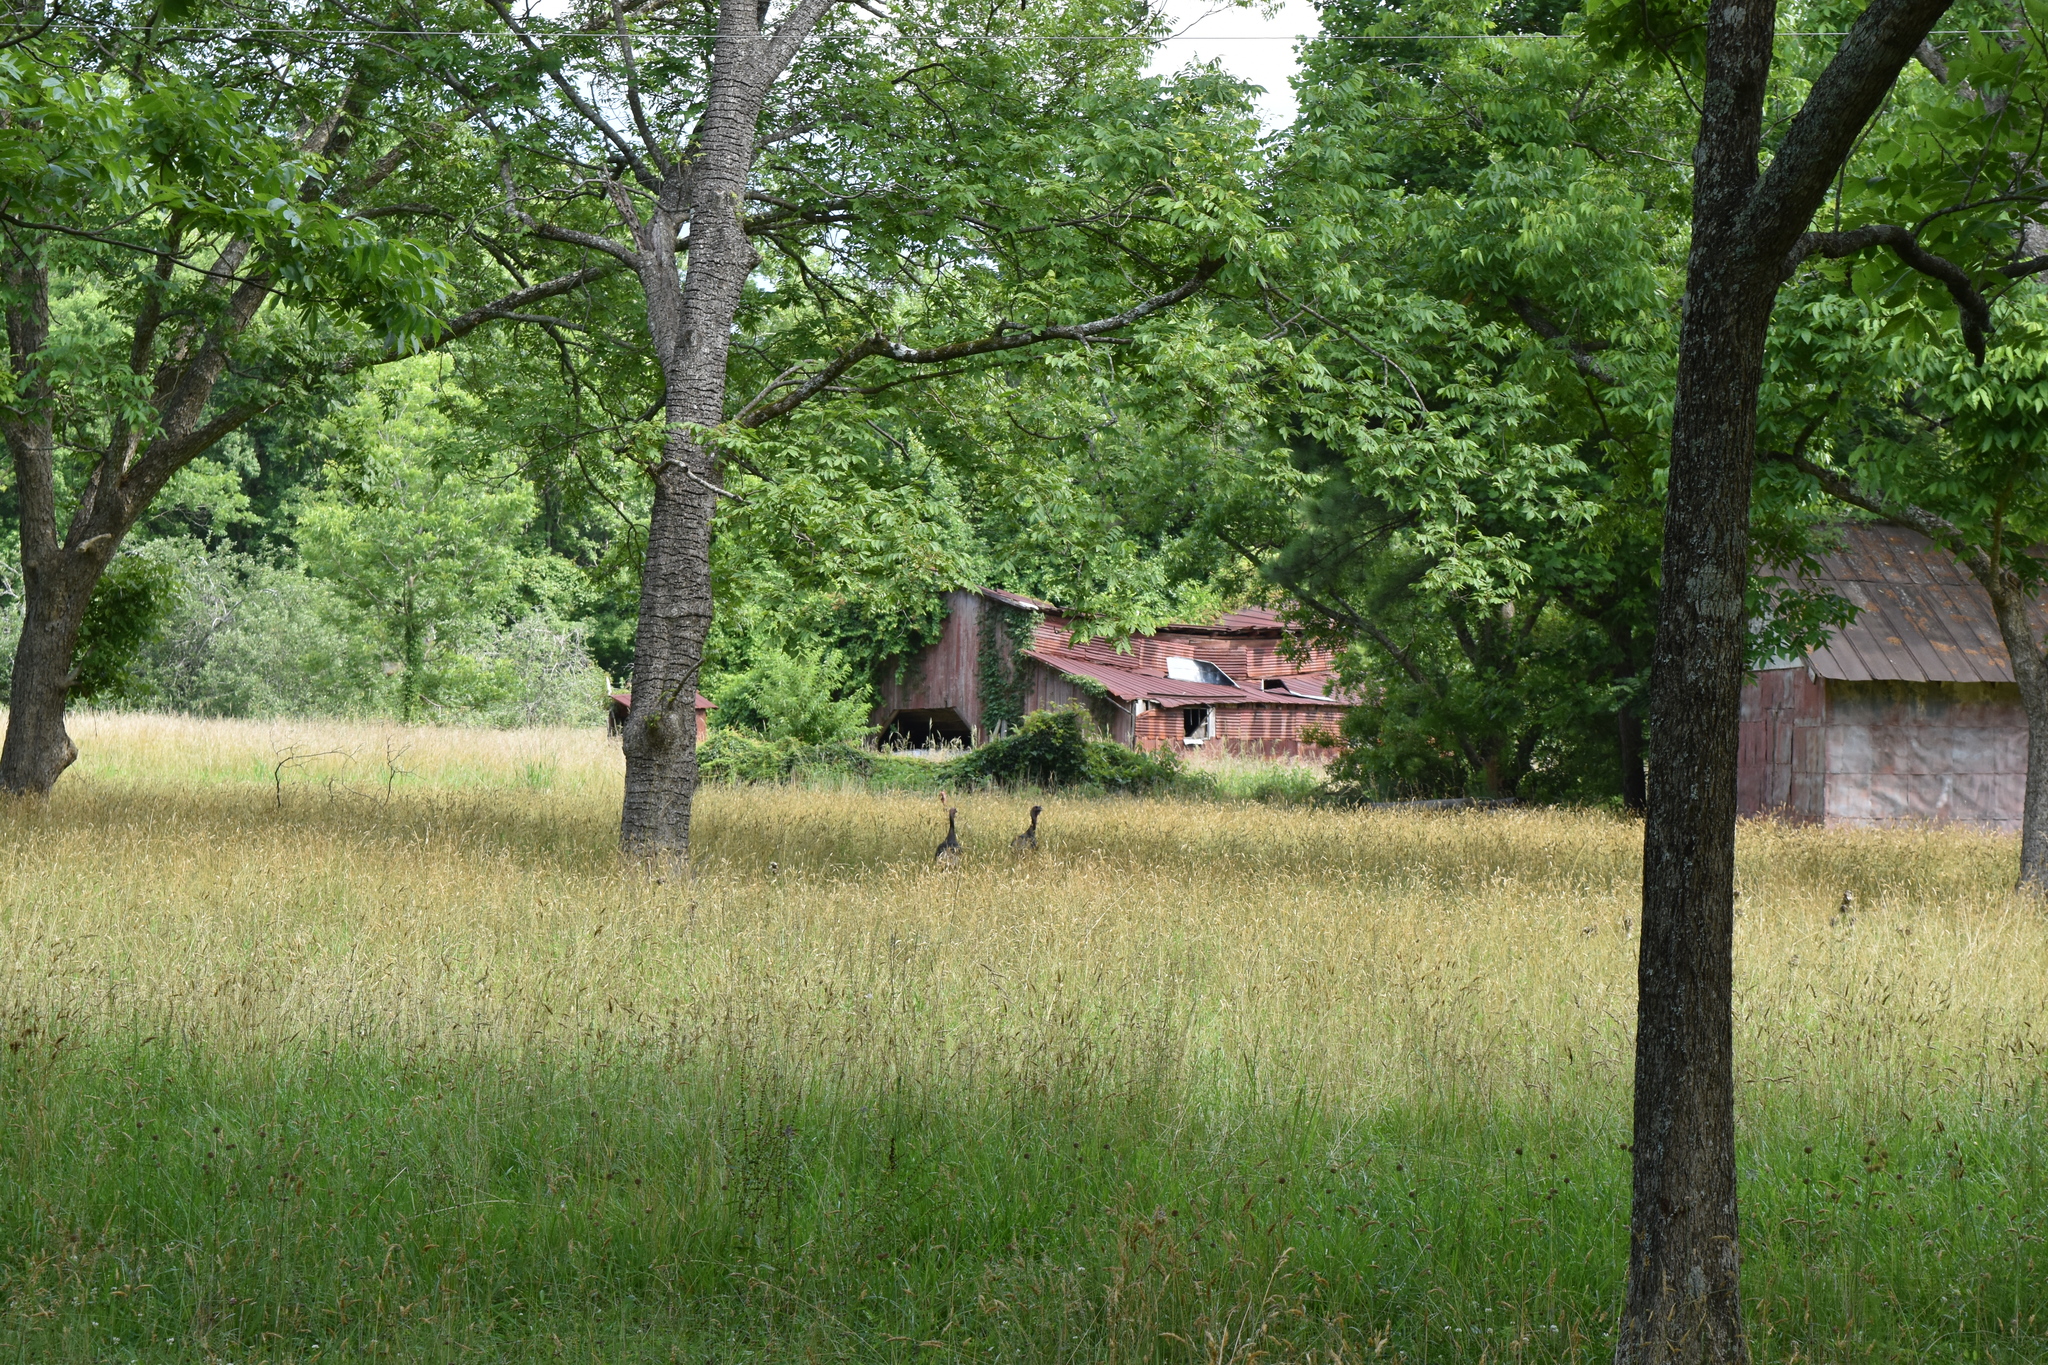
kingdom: Animalia
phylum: Chordata
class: Aves
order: Galliformes
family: Phasianidae
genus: Meleagris
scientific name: Meleagris gallopavo
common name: Wild turkey
